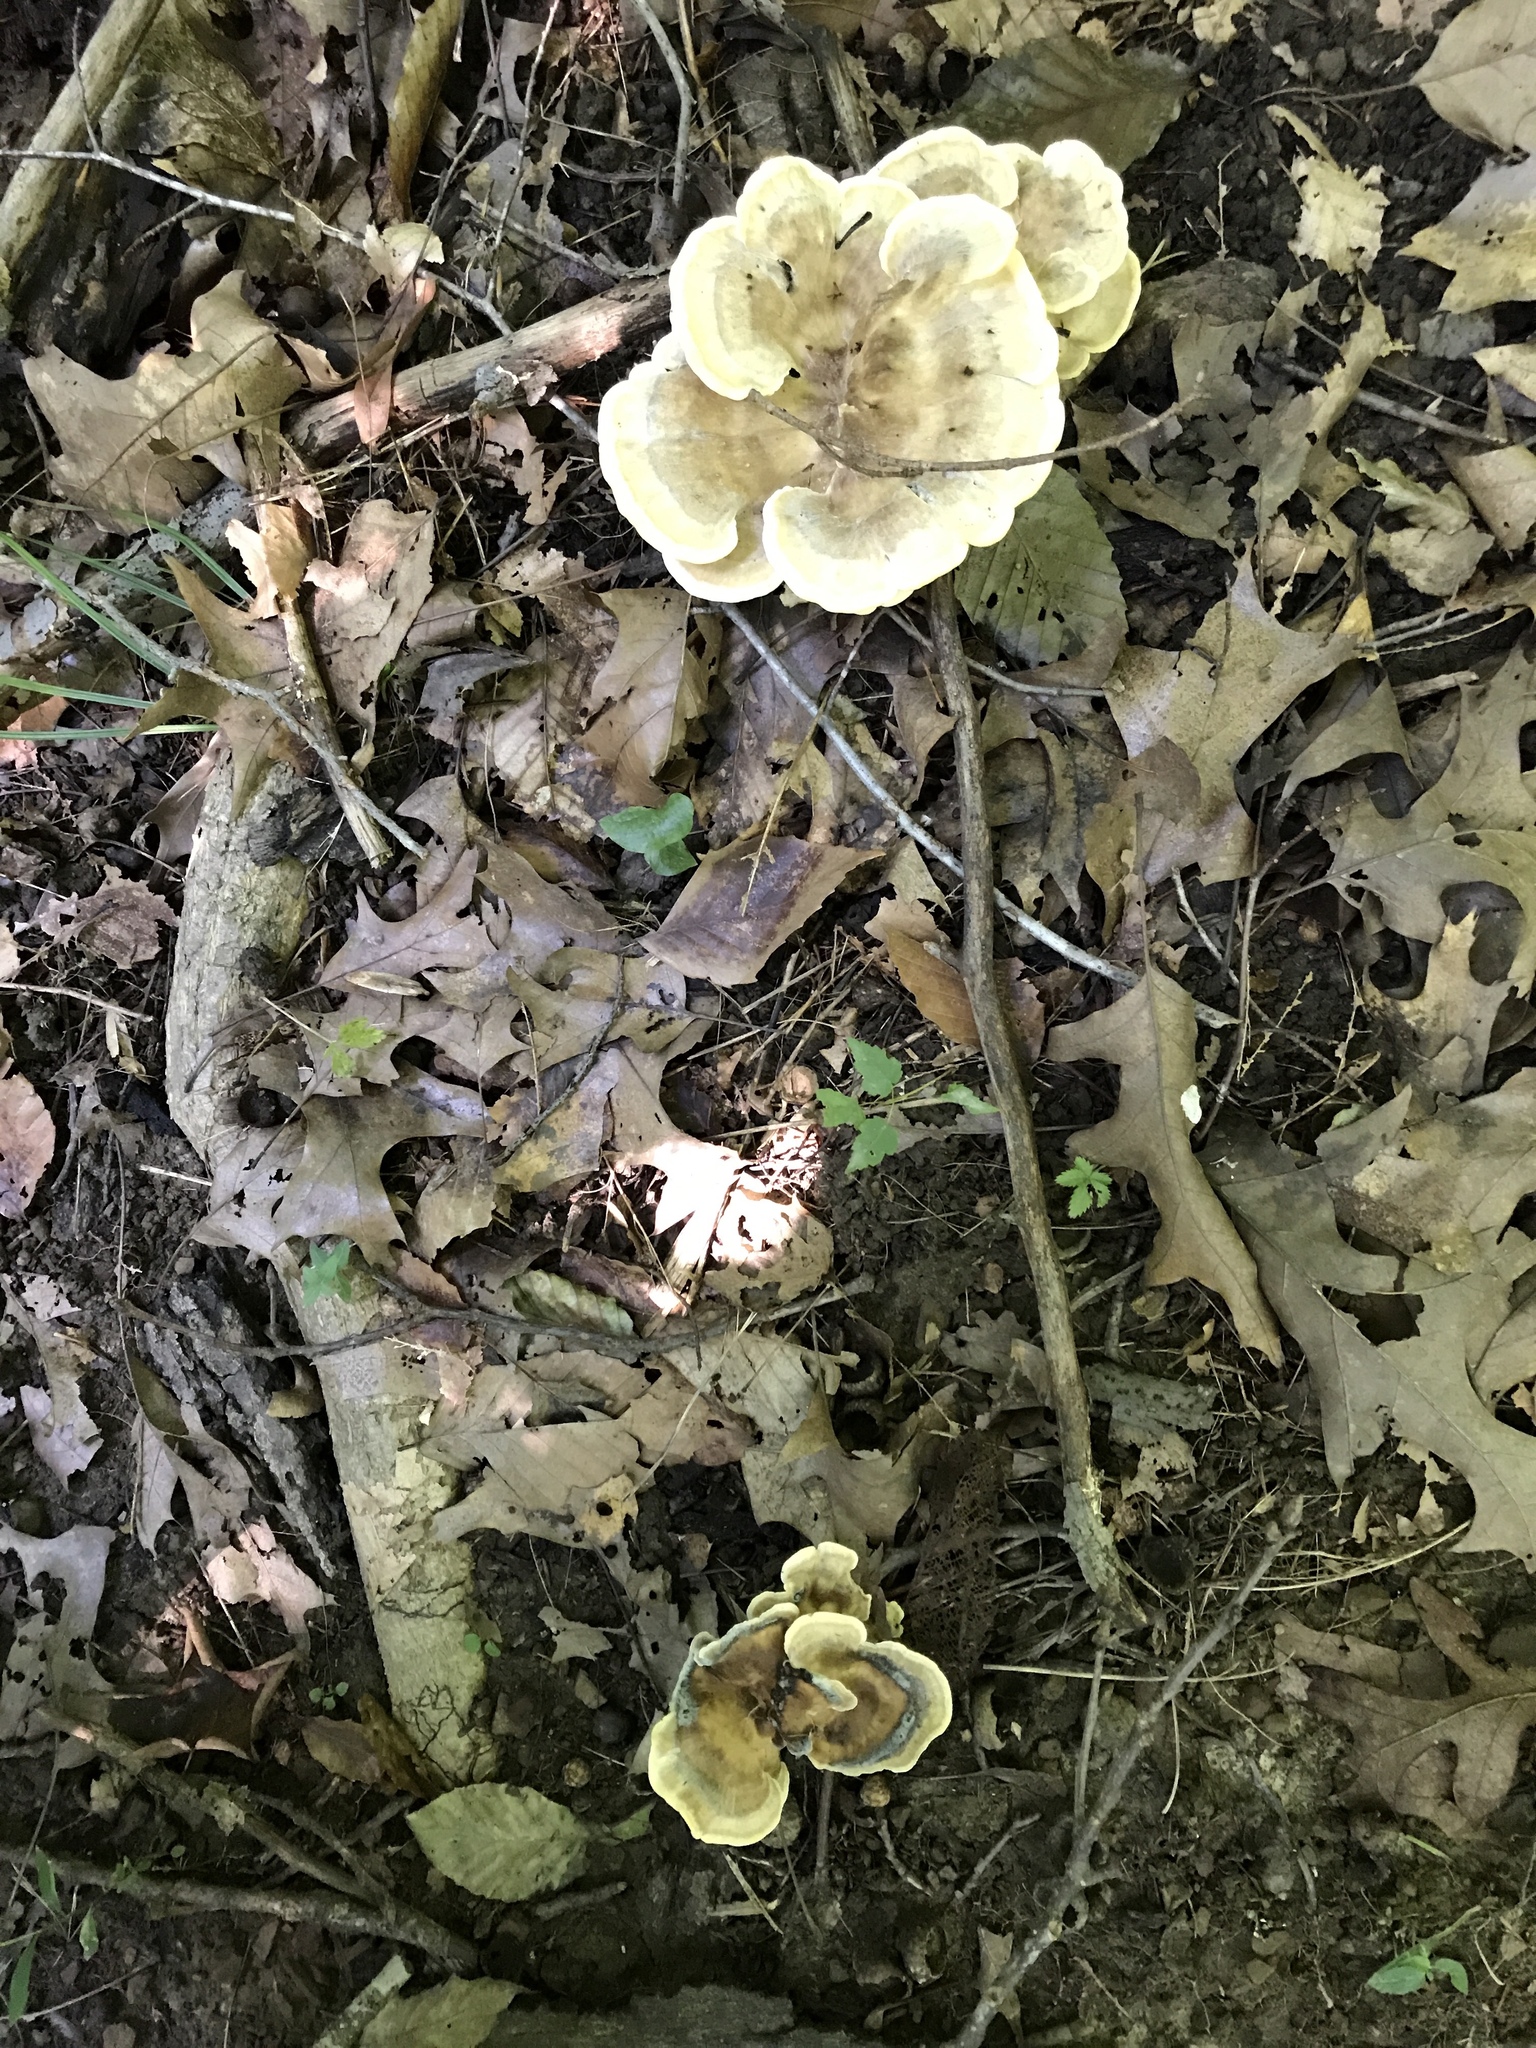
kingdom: Fungi
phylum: Basidiomycota
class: Agaricomycetes
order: Polyporales
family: Meripilaceae
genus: Meripilus
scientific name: Meripilus sumstinei
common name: Black-staining polypore
